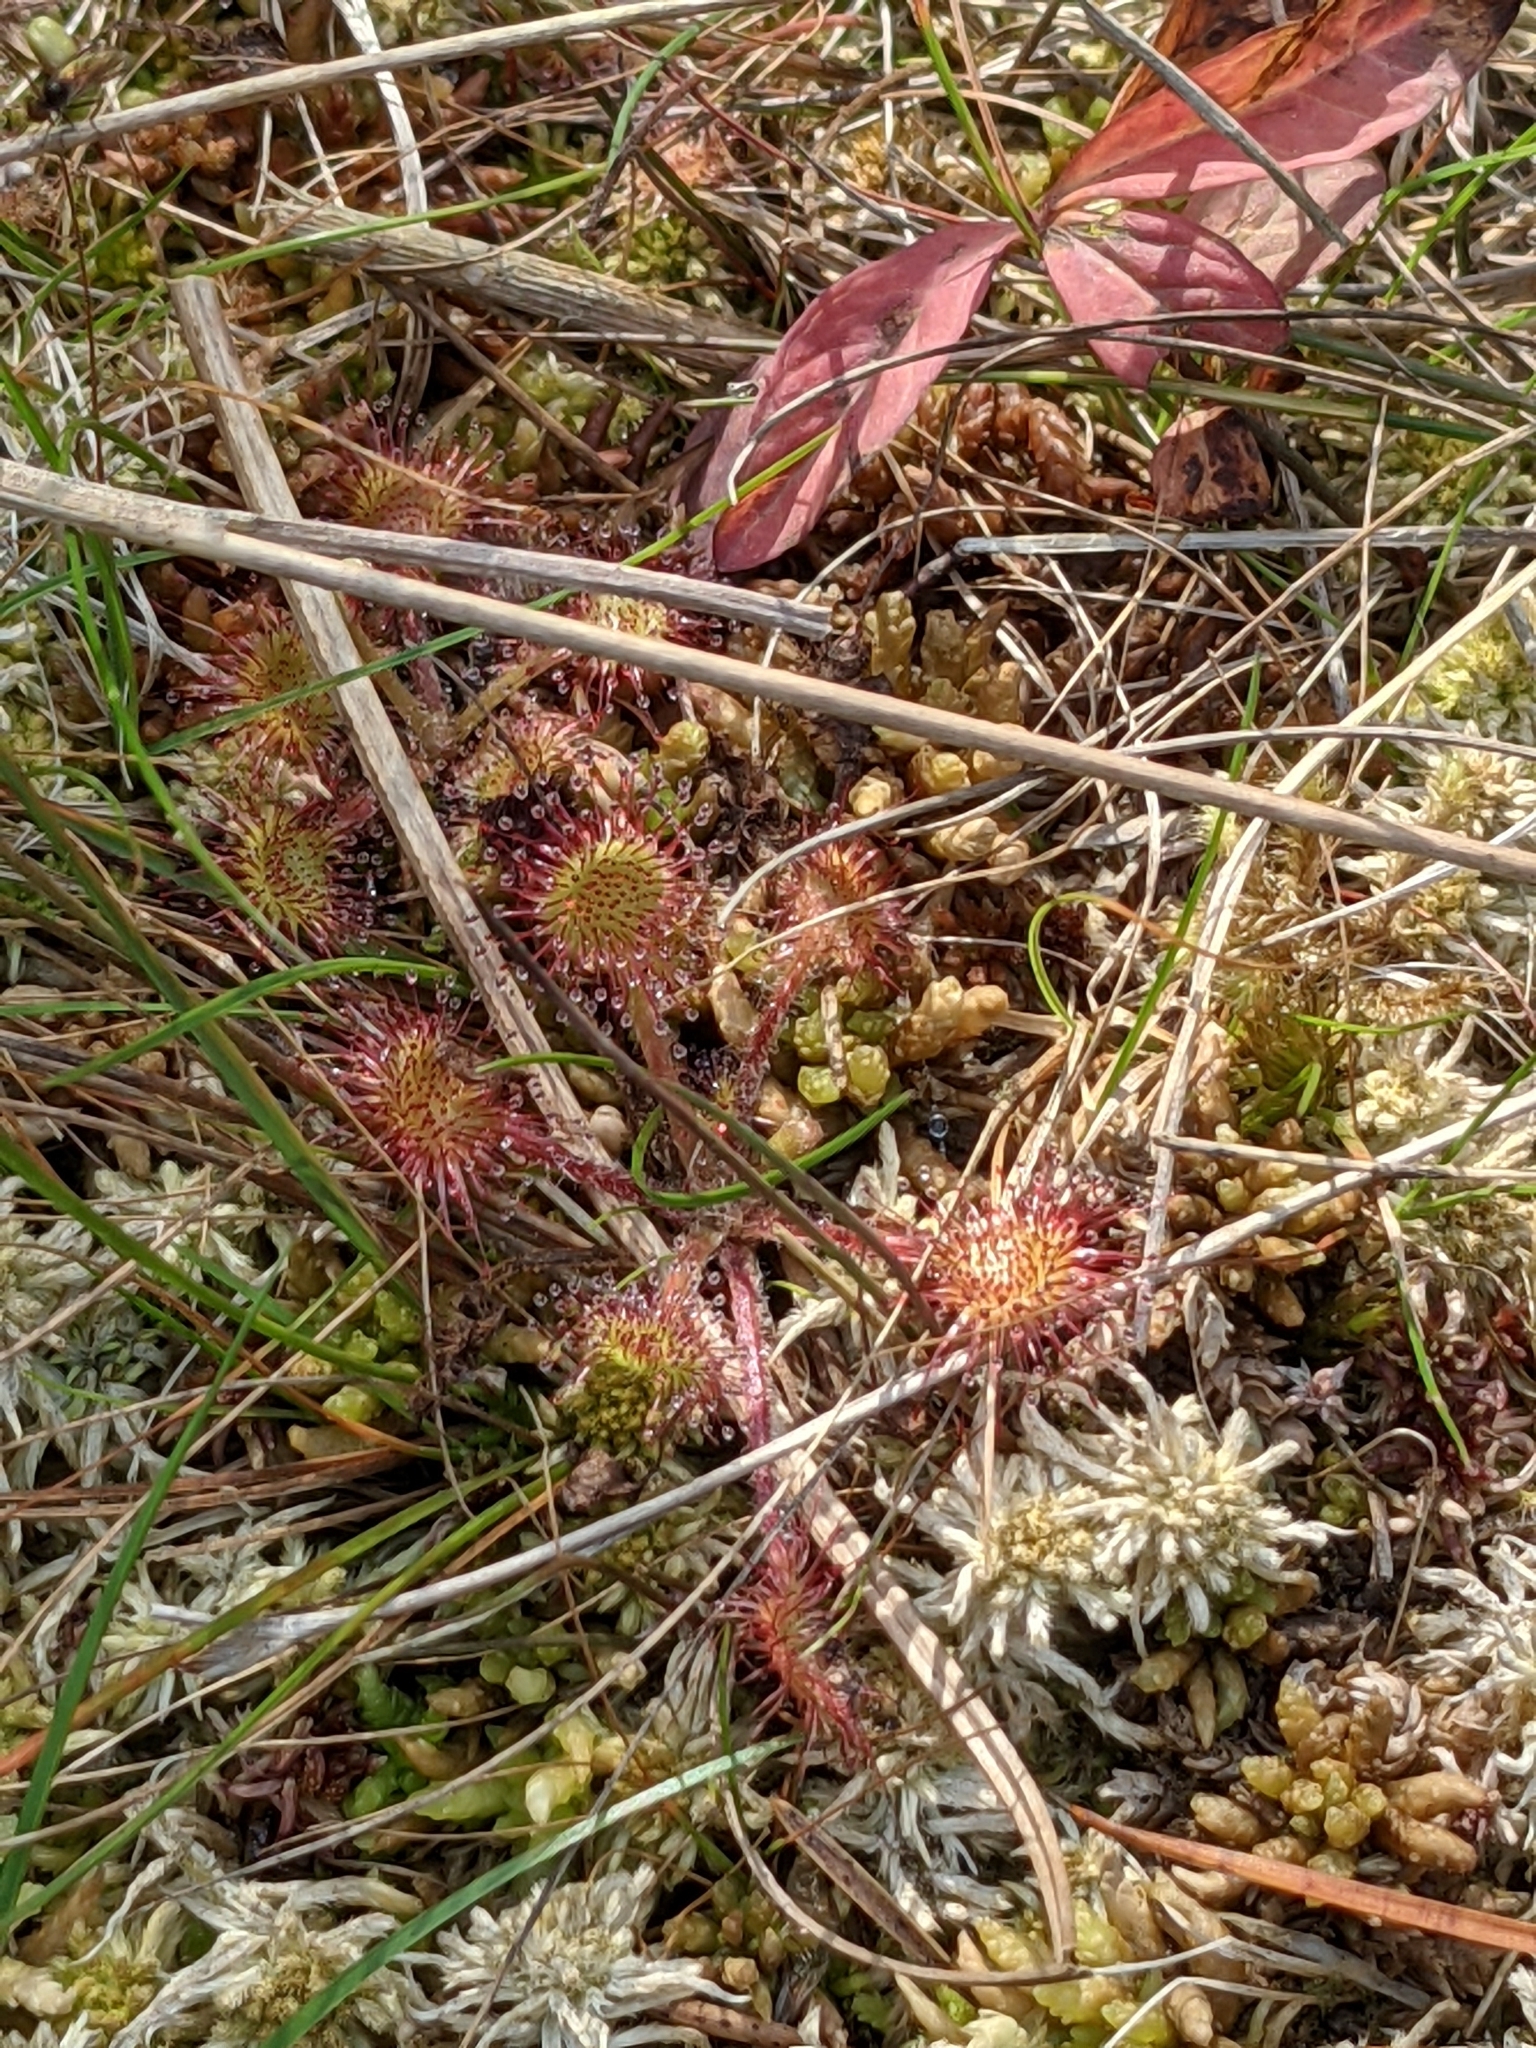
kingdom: Plantae
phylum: Tracheophyta
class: Magnoliopsida
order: Caryophyllales
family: Droseraceae
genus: Drosera
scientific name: Drosera rotundifolia
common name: Round-leaved sundew
